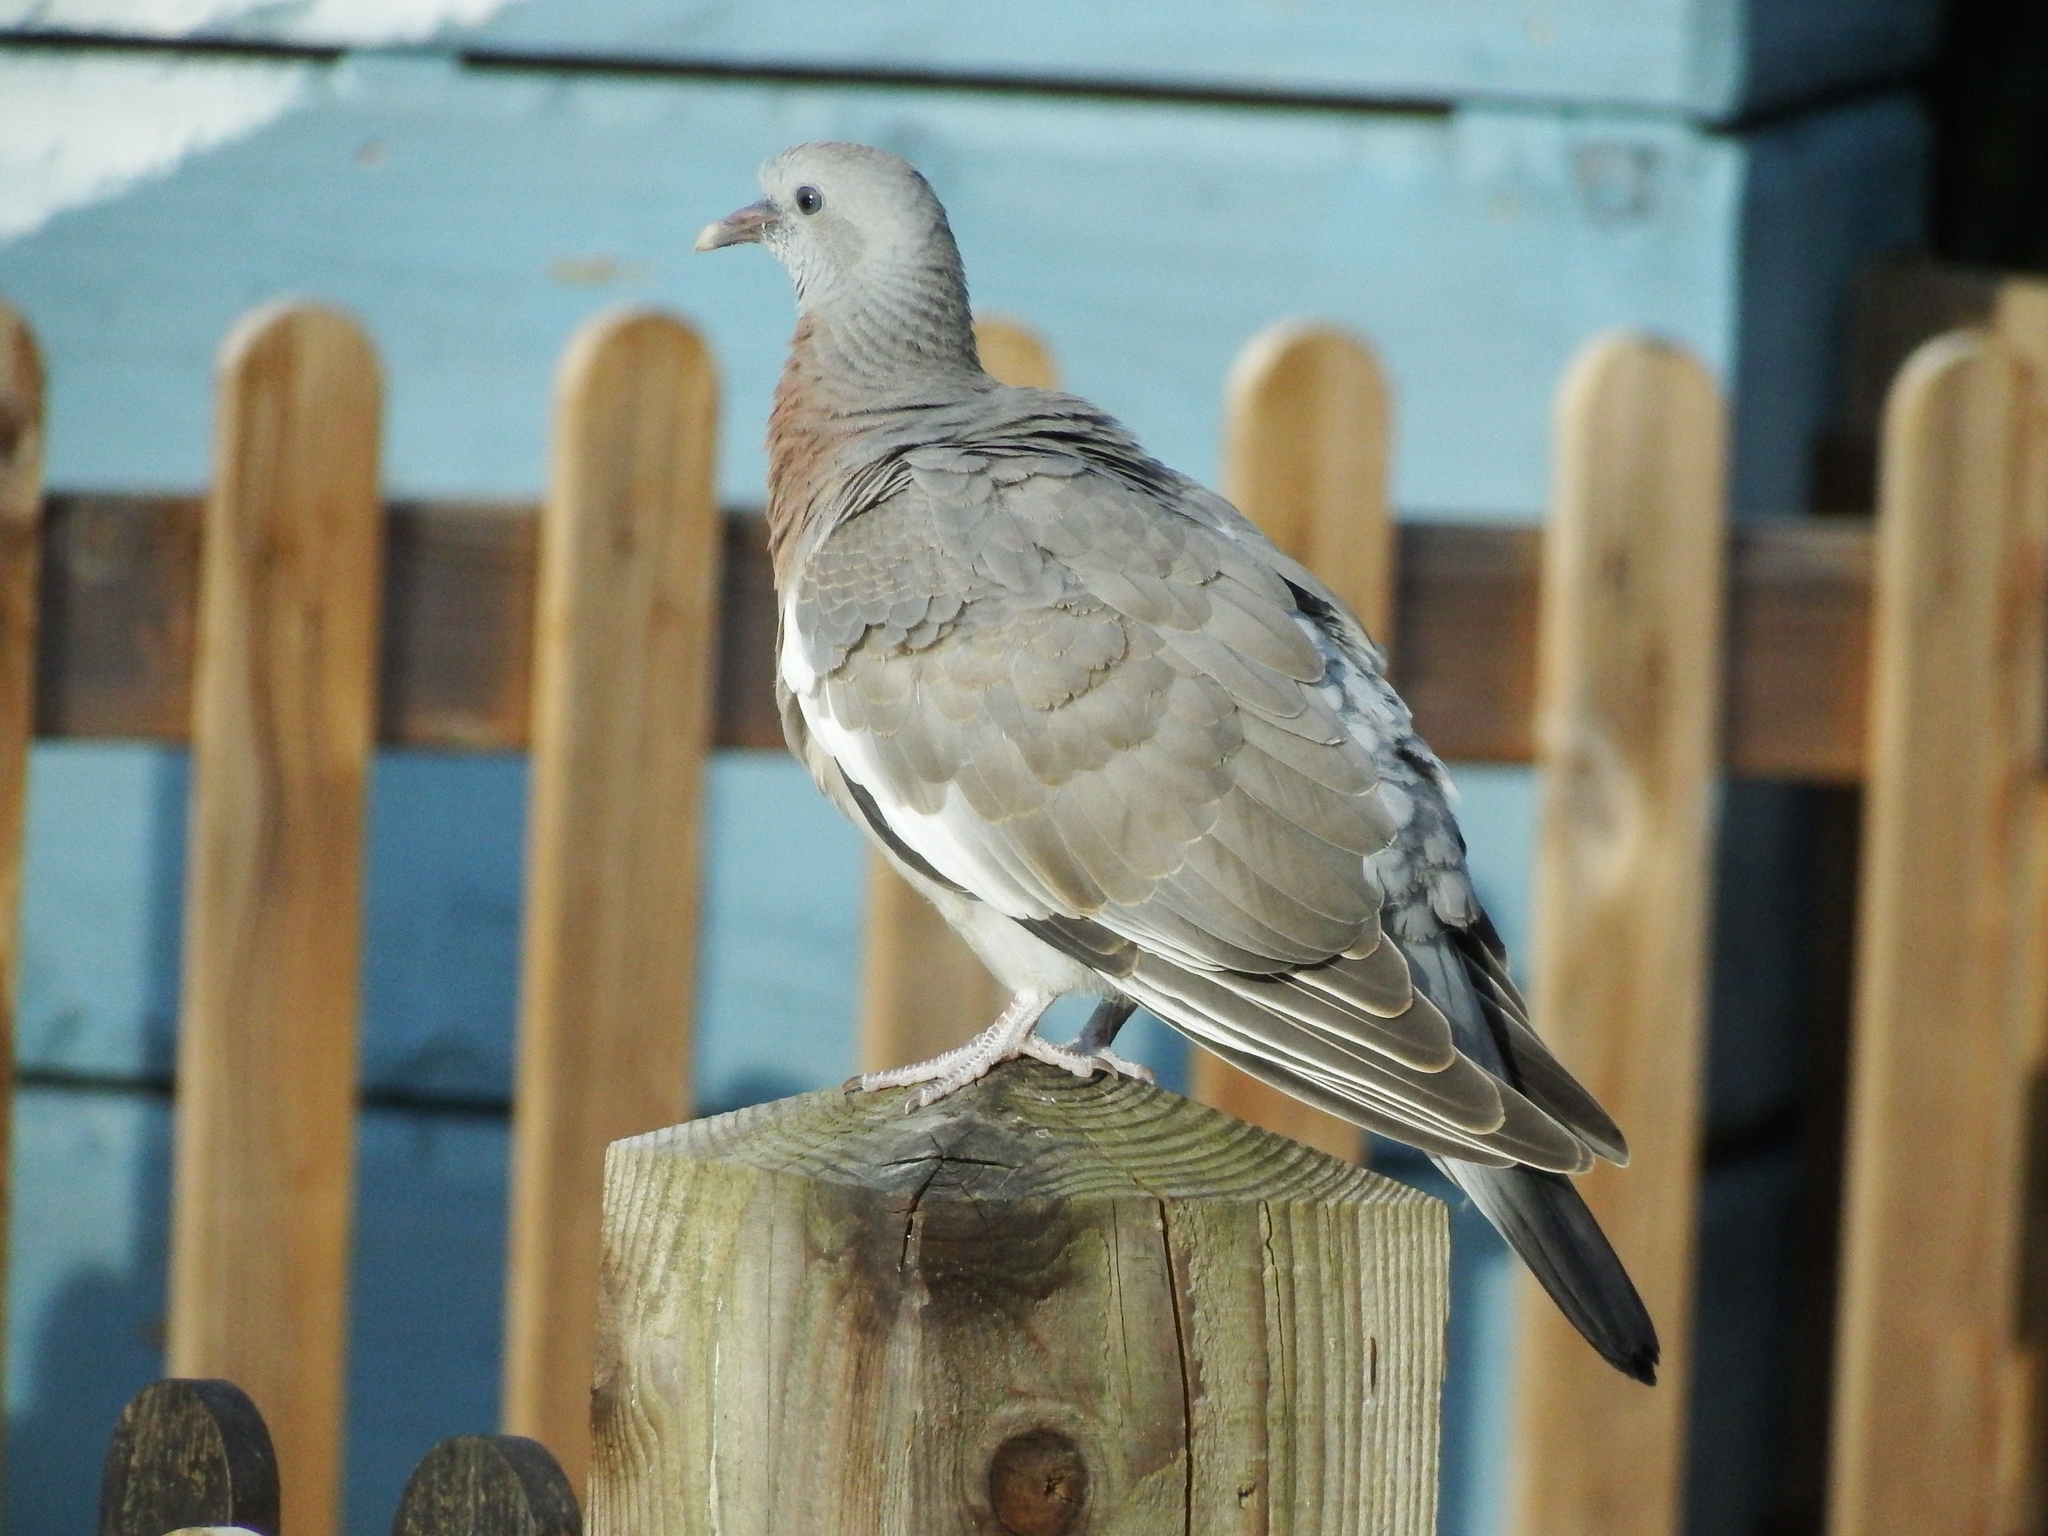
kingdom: Animalia
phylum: Chordata
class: Aves
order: Columbiformes
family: Columbidae
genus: Columba
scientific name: Columba palumbus
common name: Common wood pigeon
